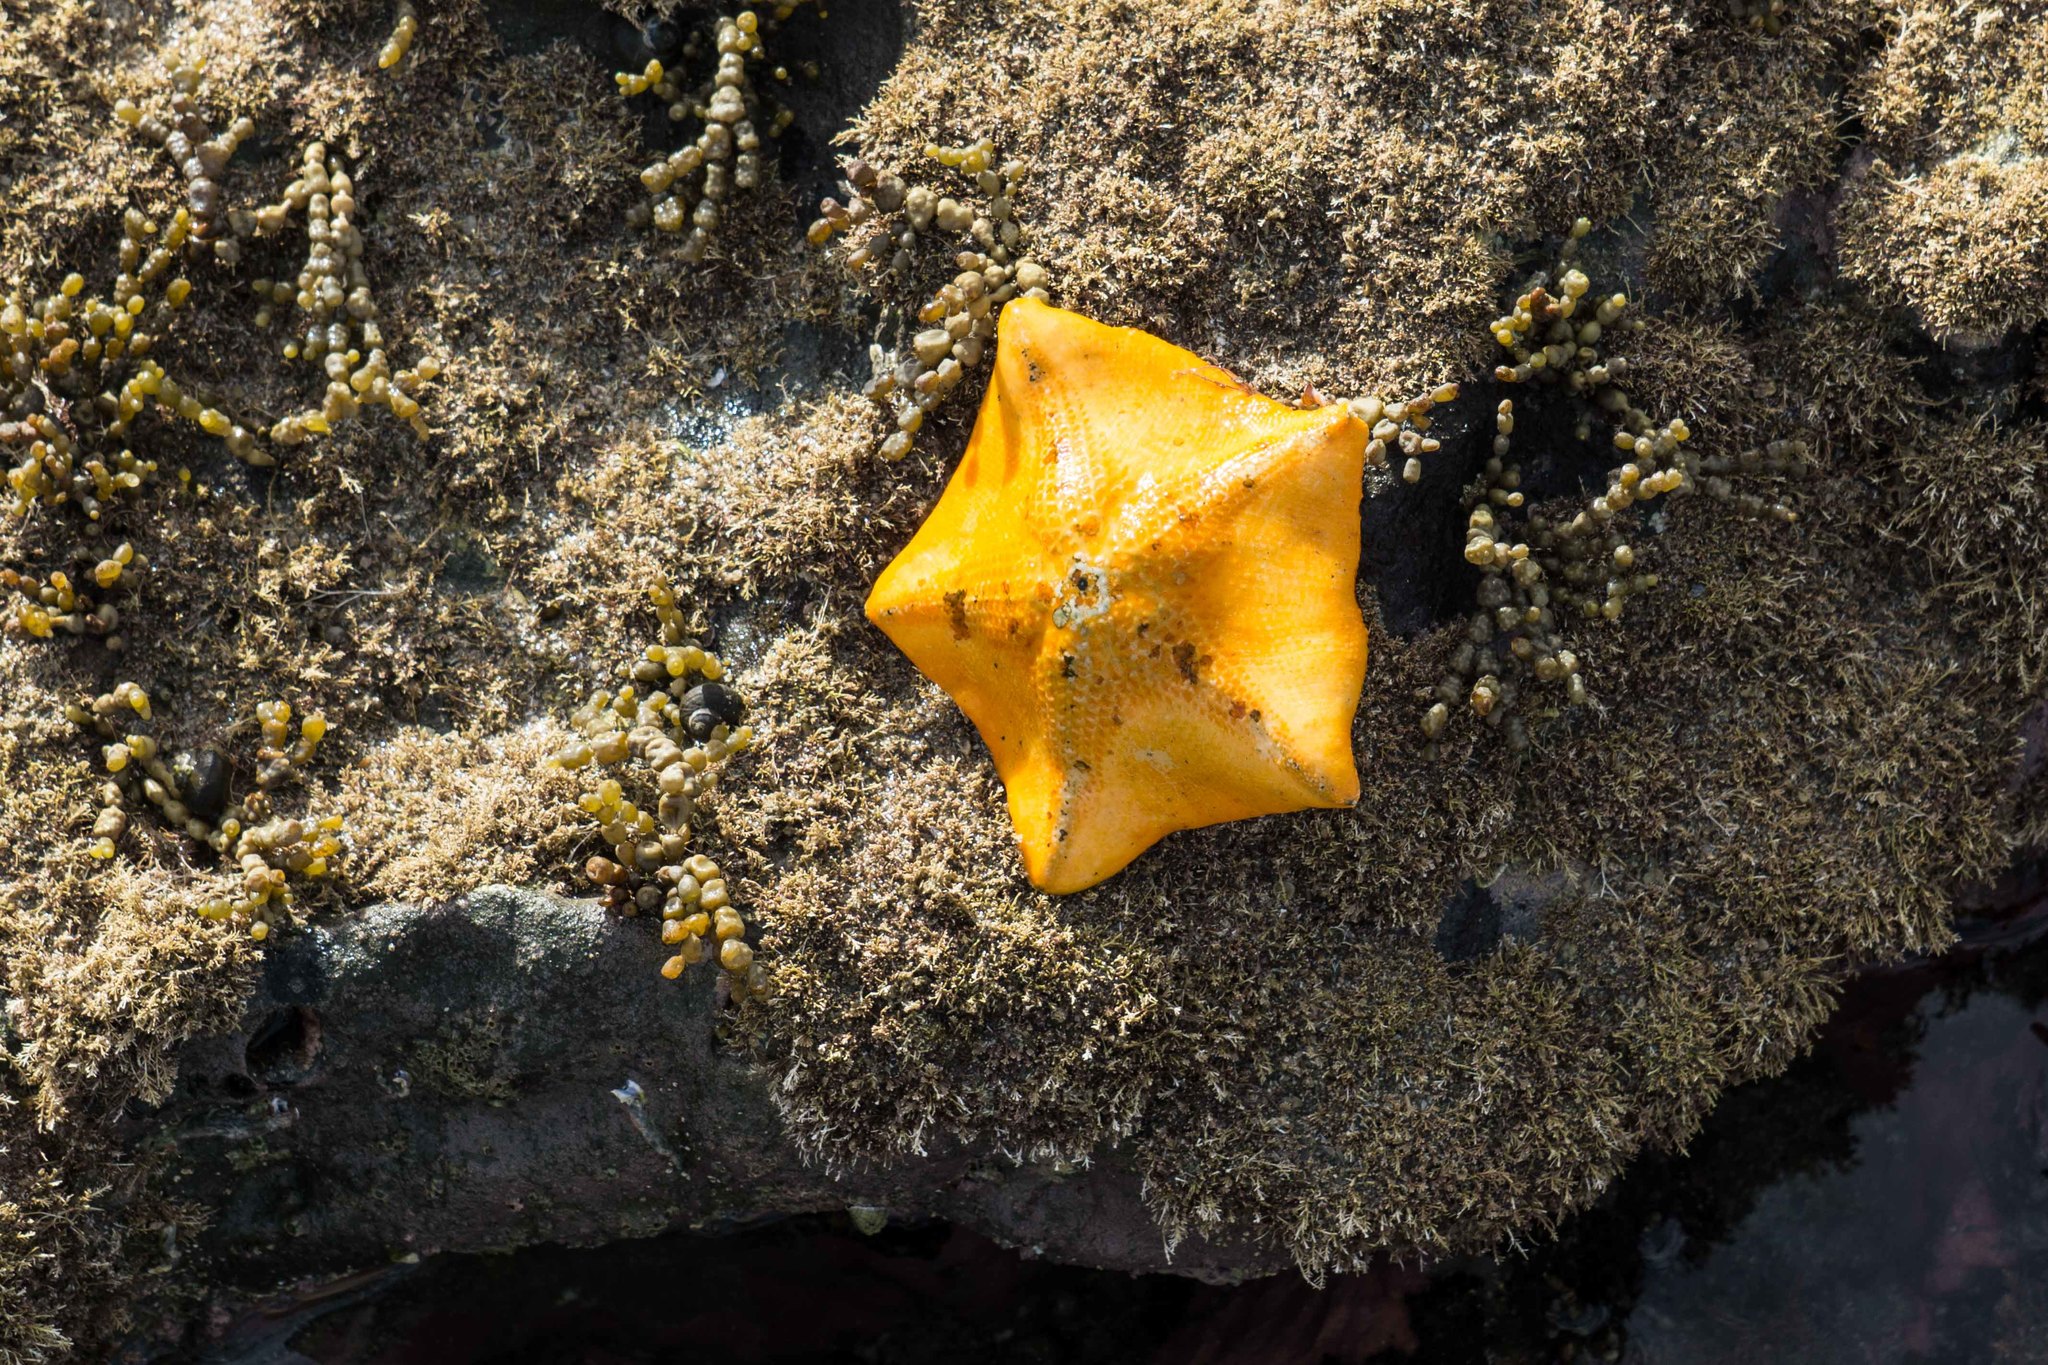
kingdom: Animalia
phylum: Echinodermata
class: Asteroidea
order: Valvatida
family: Asterinidae
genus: Stegnaster
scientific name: Stegnaster inflatus
